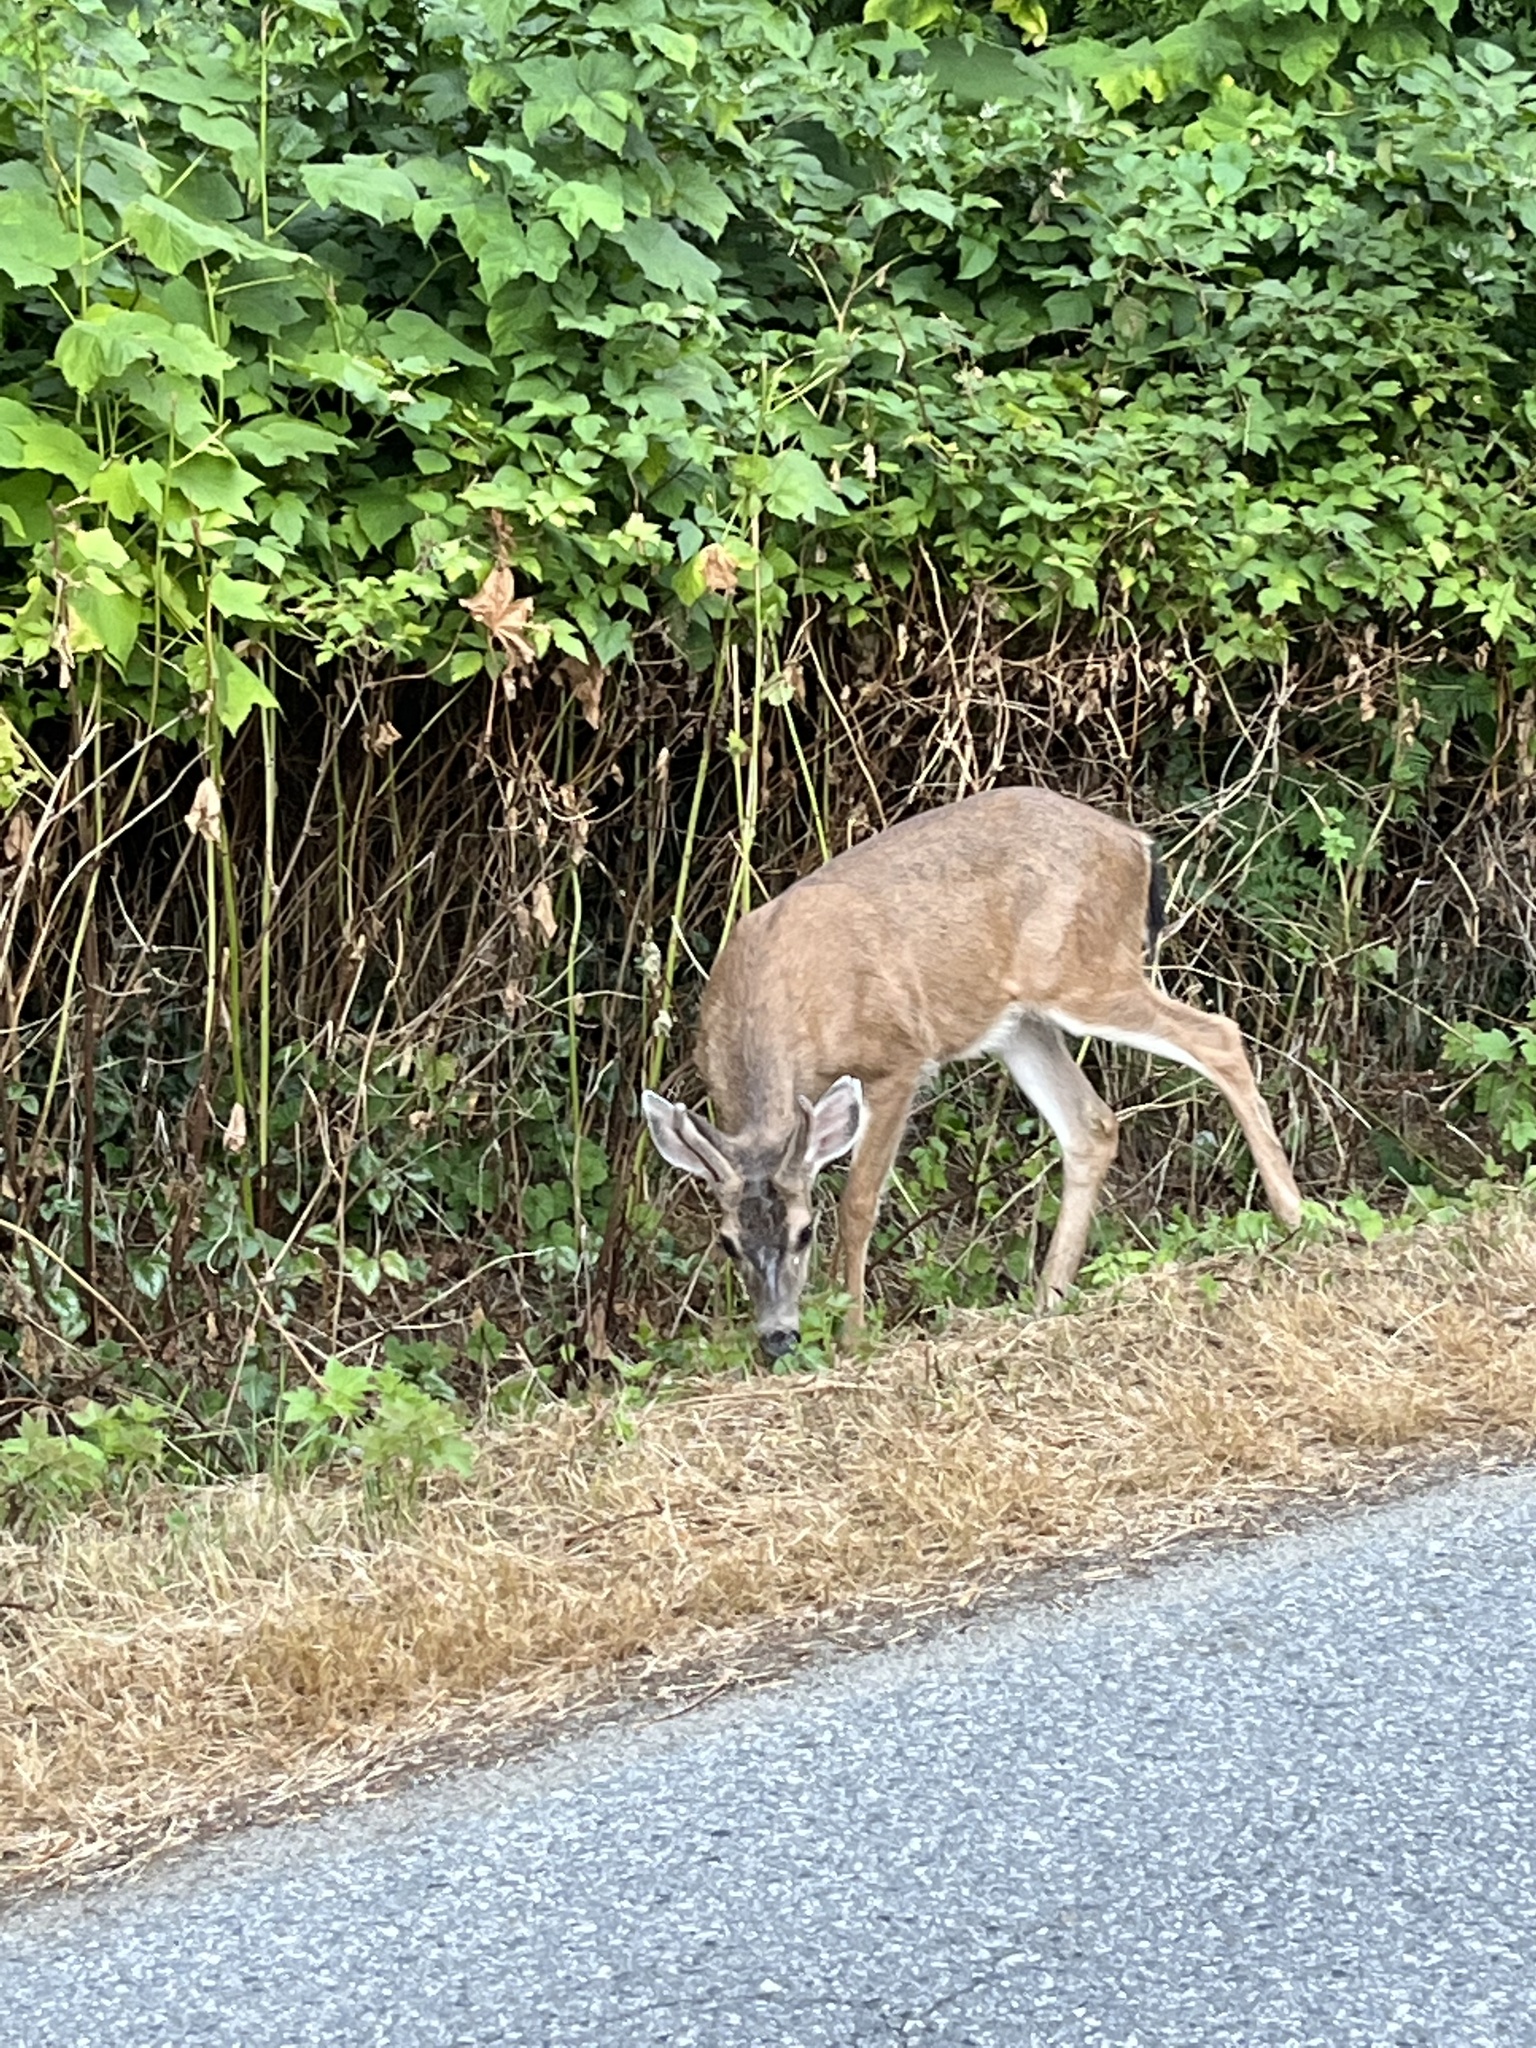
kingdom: Animalia
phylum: Chordata
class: Mammalia
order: Artiodactyla
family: Cervidae
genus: Odocoileus
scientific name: Odocoileus hemionus
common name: Mule deer
